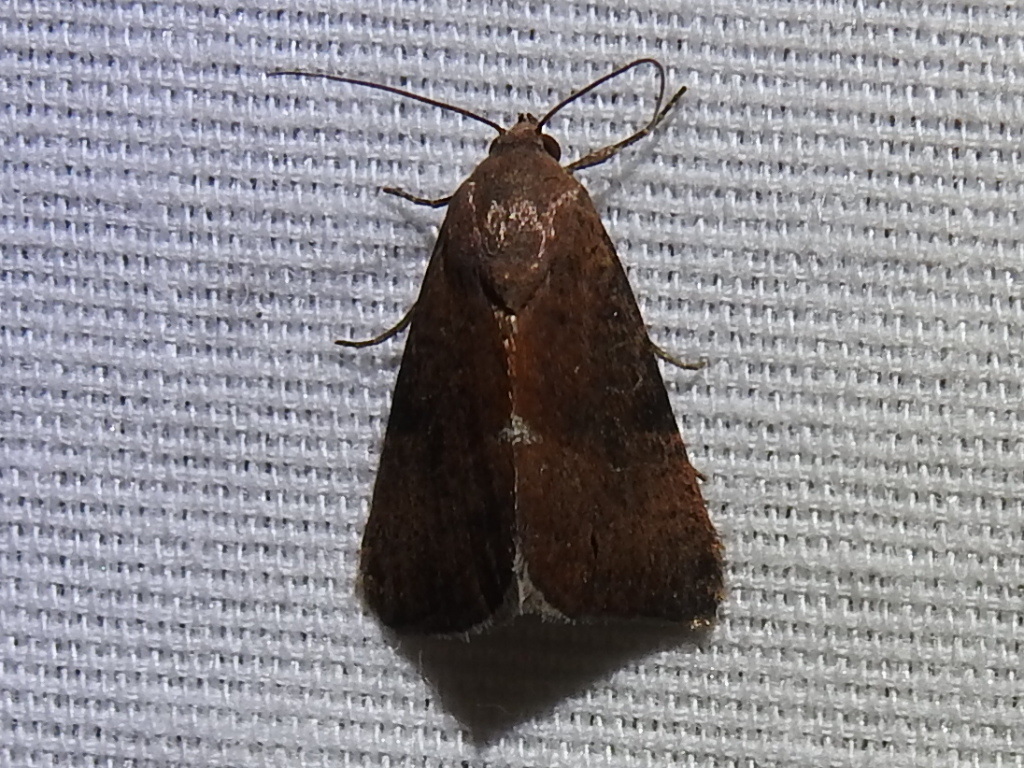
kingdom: Animalia
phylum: Arthropoda
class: Insecta
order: Lepidoptera
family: Noctuidae
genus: Galgula
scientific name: Galgula partita
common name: Wedgeling
